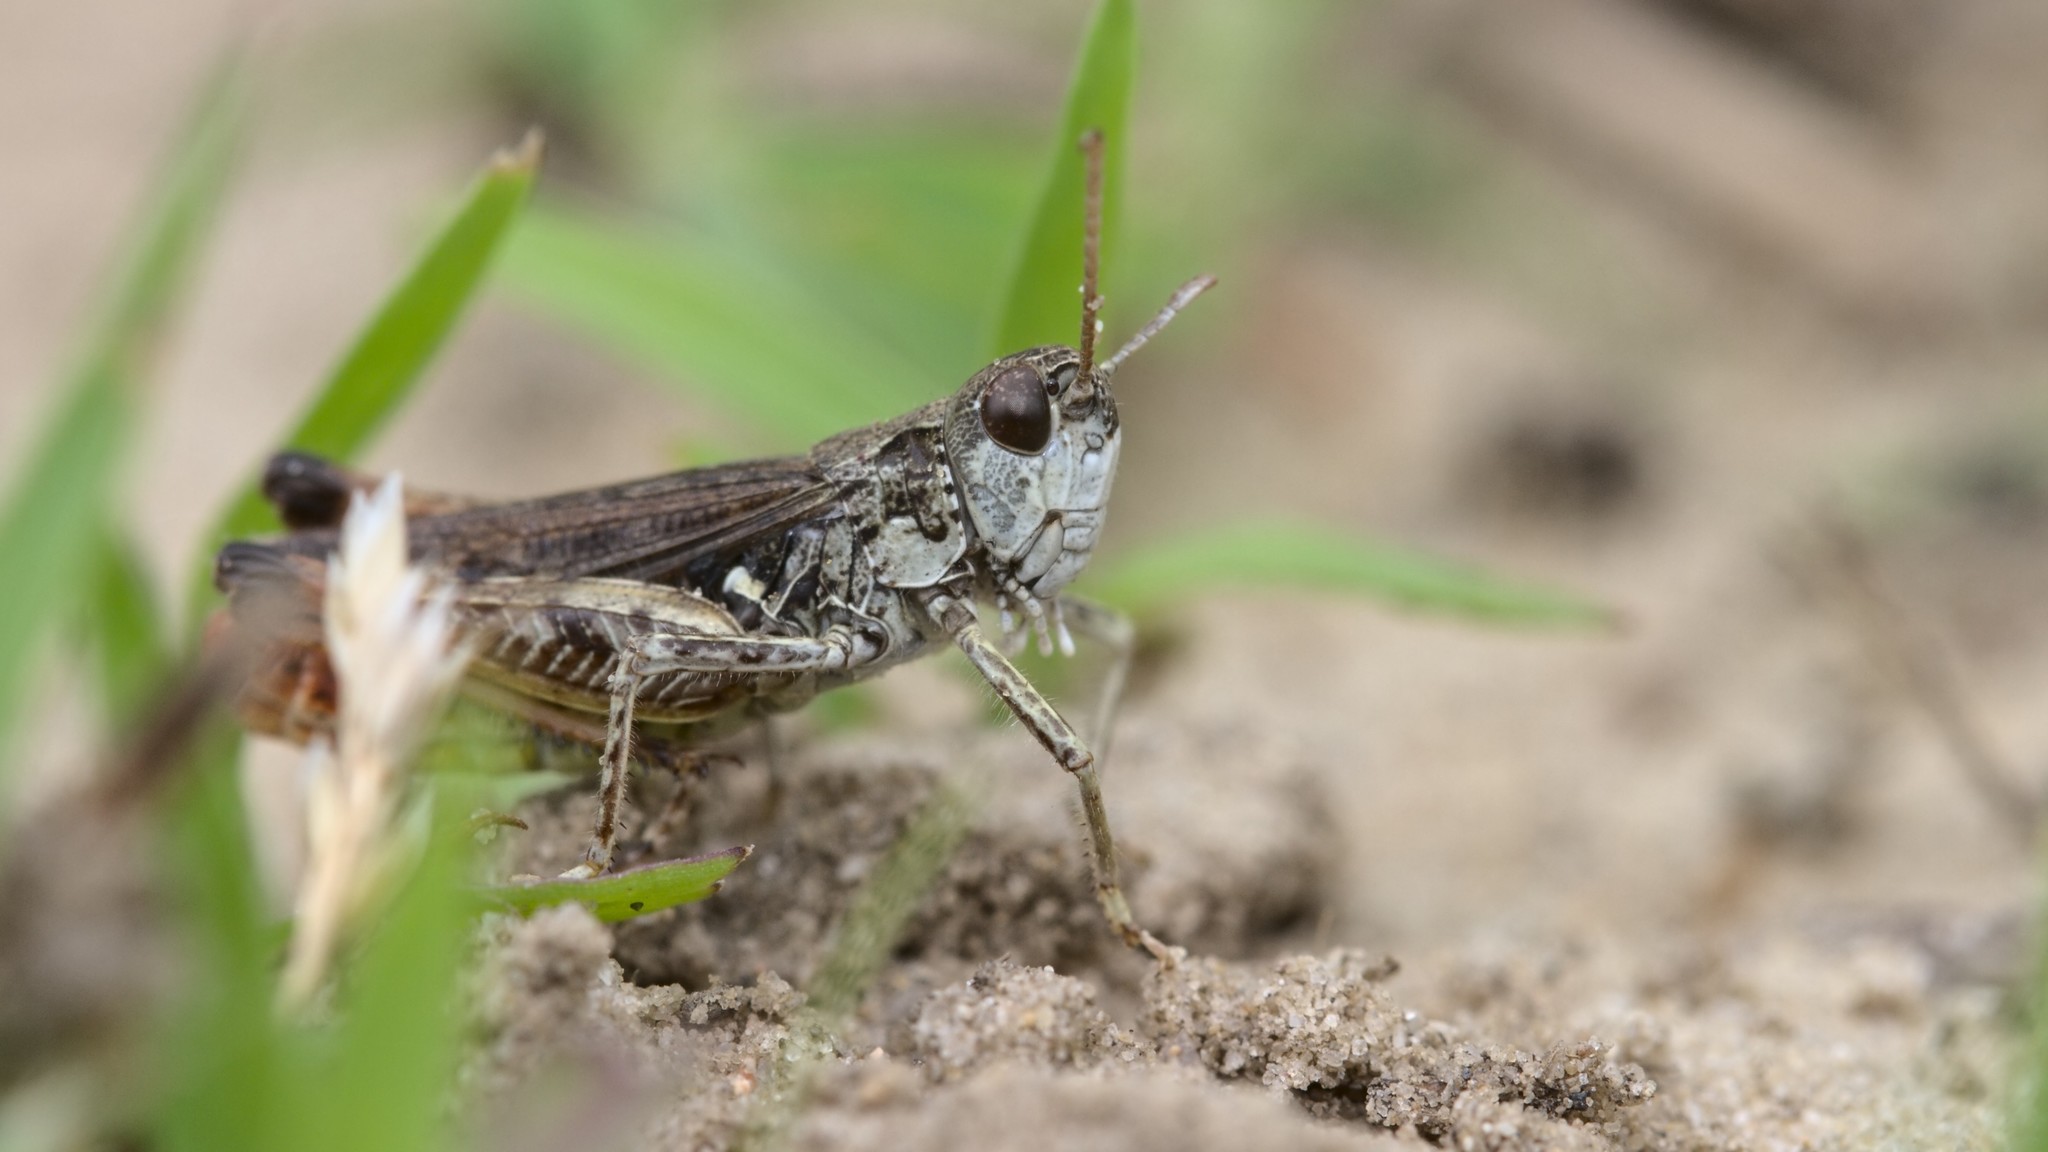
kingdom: Animalia
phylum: Arthropoda
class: Insecta
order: Orthoptera
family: Acrididae
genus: Myrmeleotettix
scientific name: Myrmeleotettix maculatus
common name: Mottled grasshopper
